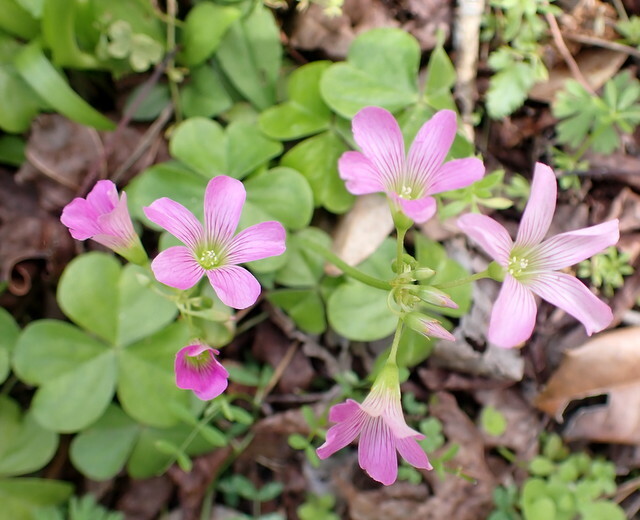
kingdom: Plantae
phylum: Tracheophyta
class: Magnoliopsida
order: Oxalidales
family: Oxalidaceae
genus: Oxalis
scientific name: Oxalis debilis
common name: Large-flowered pink-sorrel
